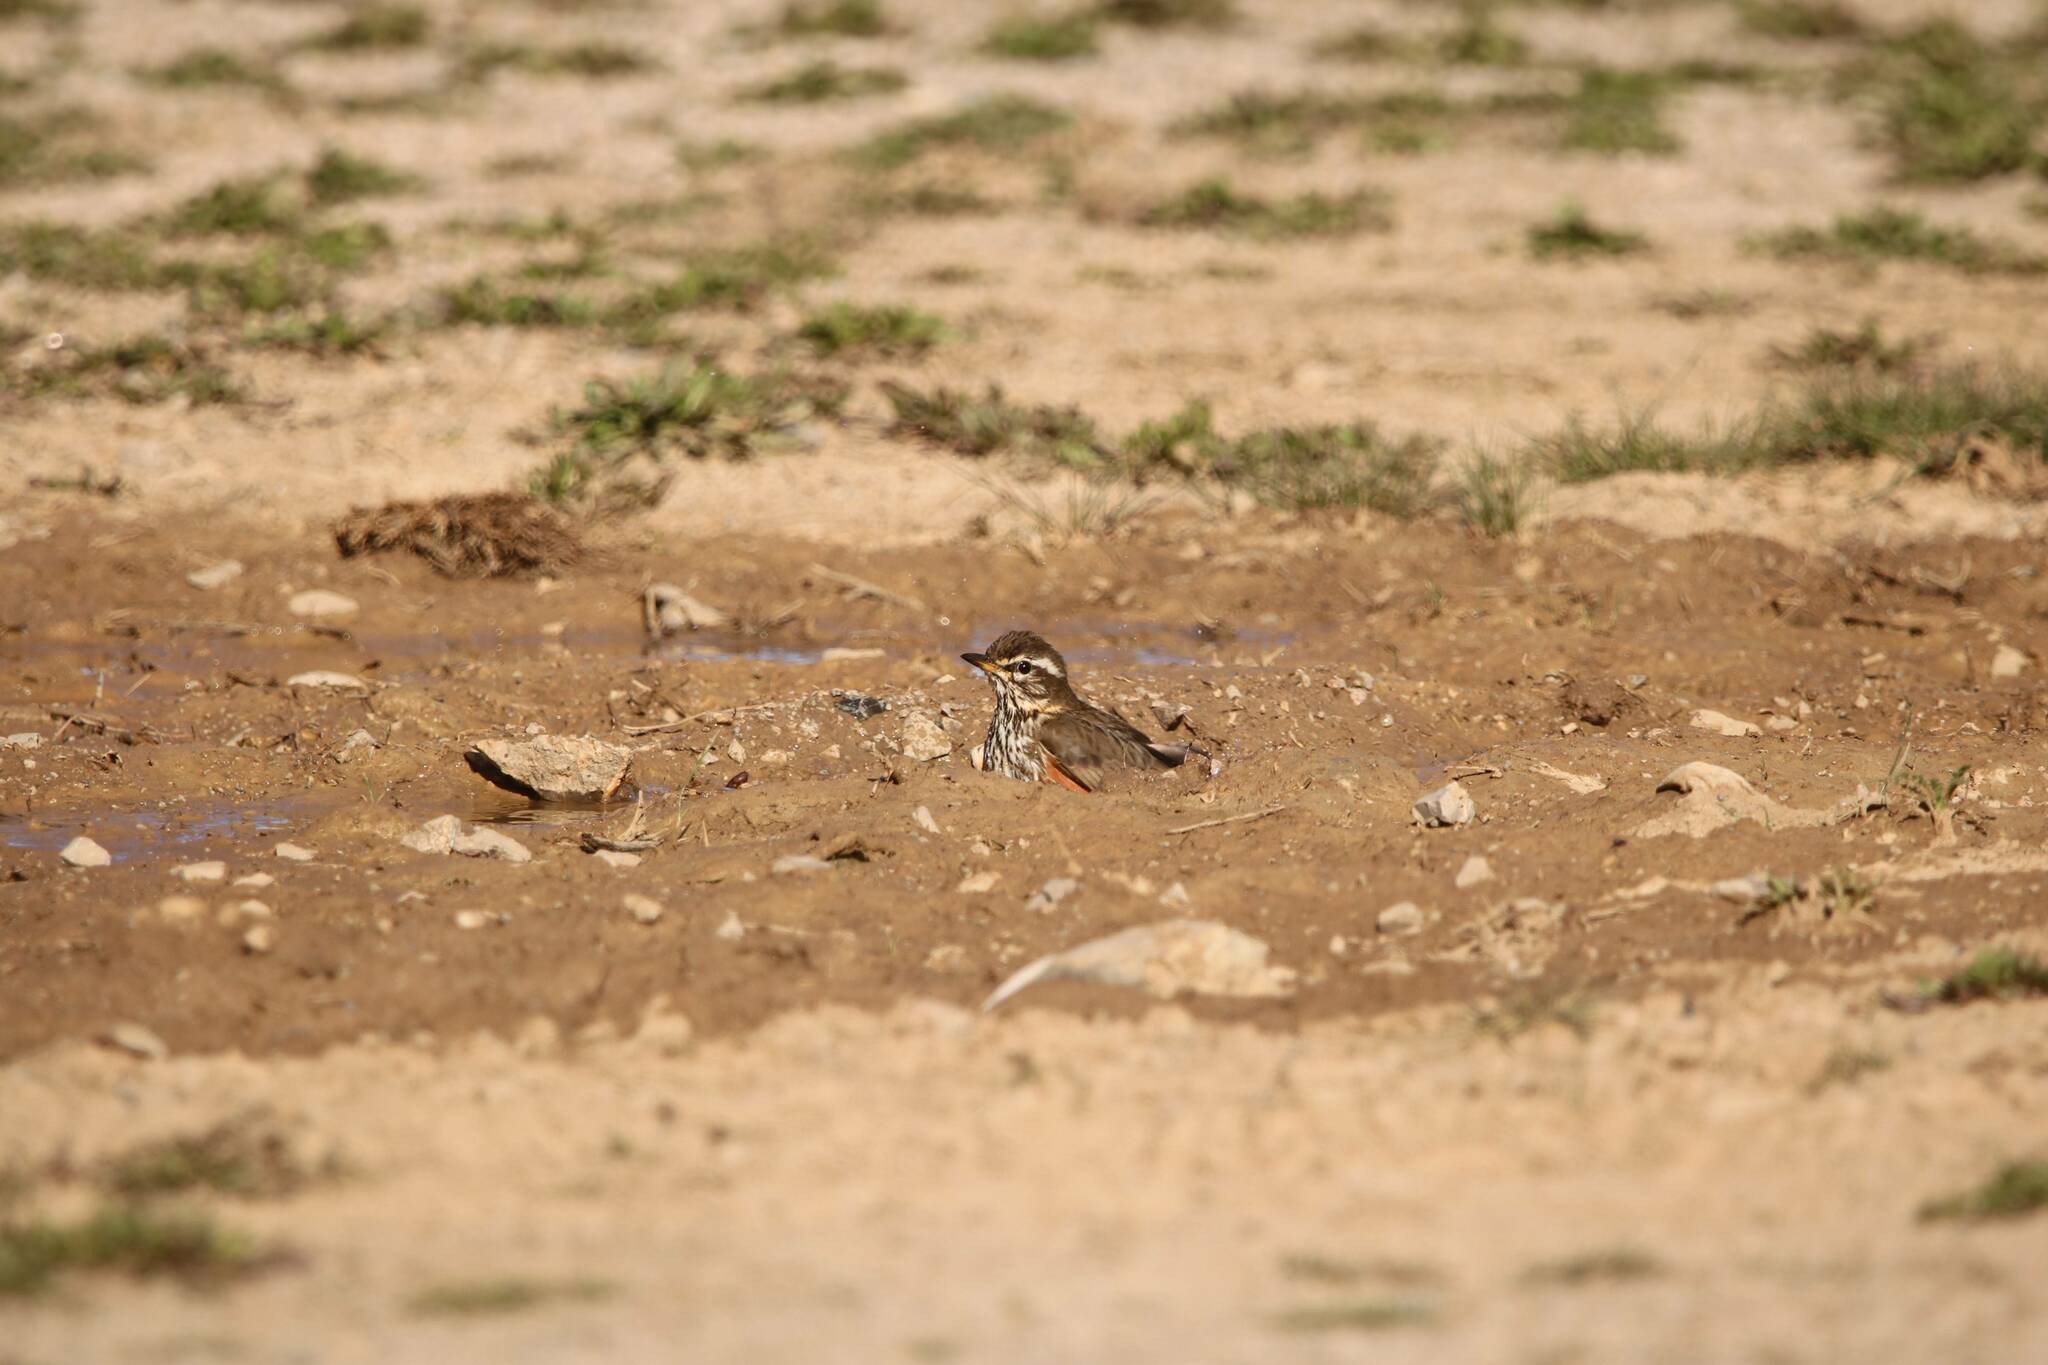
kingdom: Animalia
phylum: Chordata
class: Aves
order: Passeriformes
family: Turdidae
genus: Turdus
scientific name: Turdus iliacus
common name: Redwing
